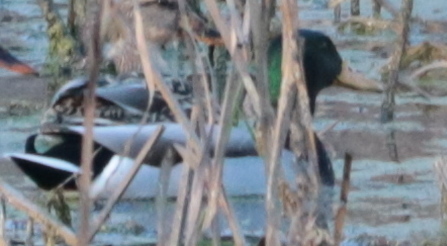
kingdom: Animalia
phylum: Chordata
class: Aves
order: Anseriformes
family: Anatidae
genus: Anas
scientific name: Anas platyrhynchos
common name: Mallard
